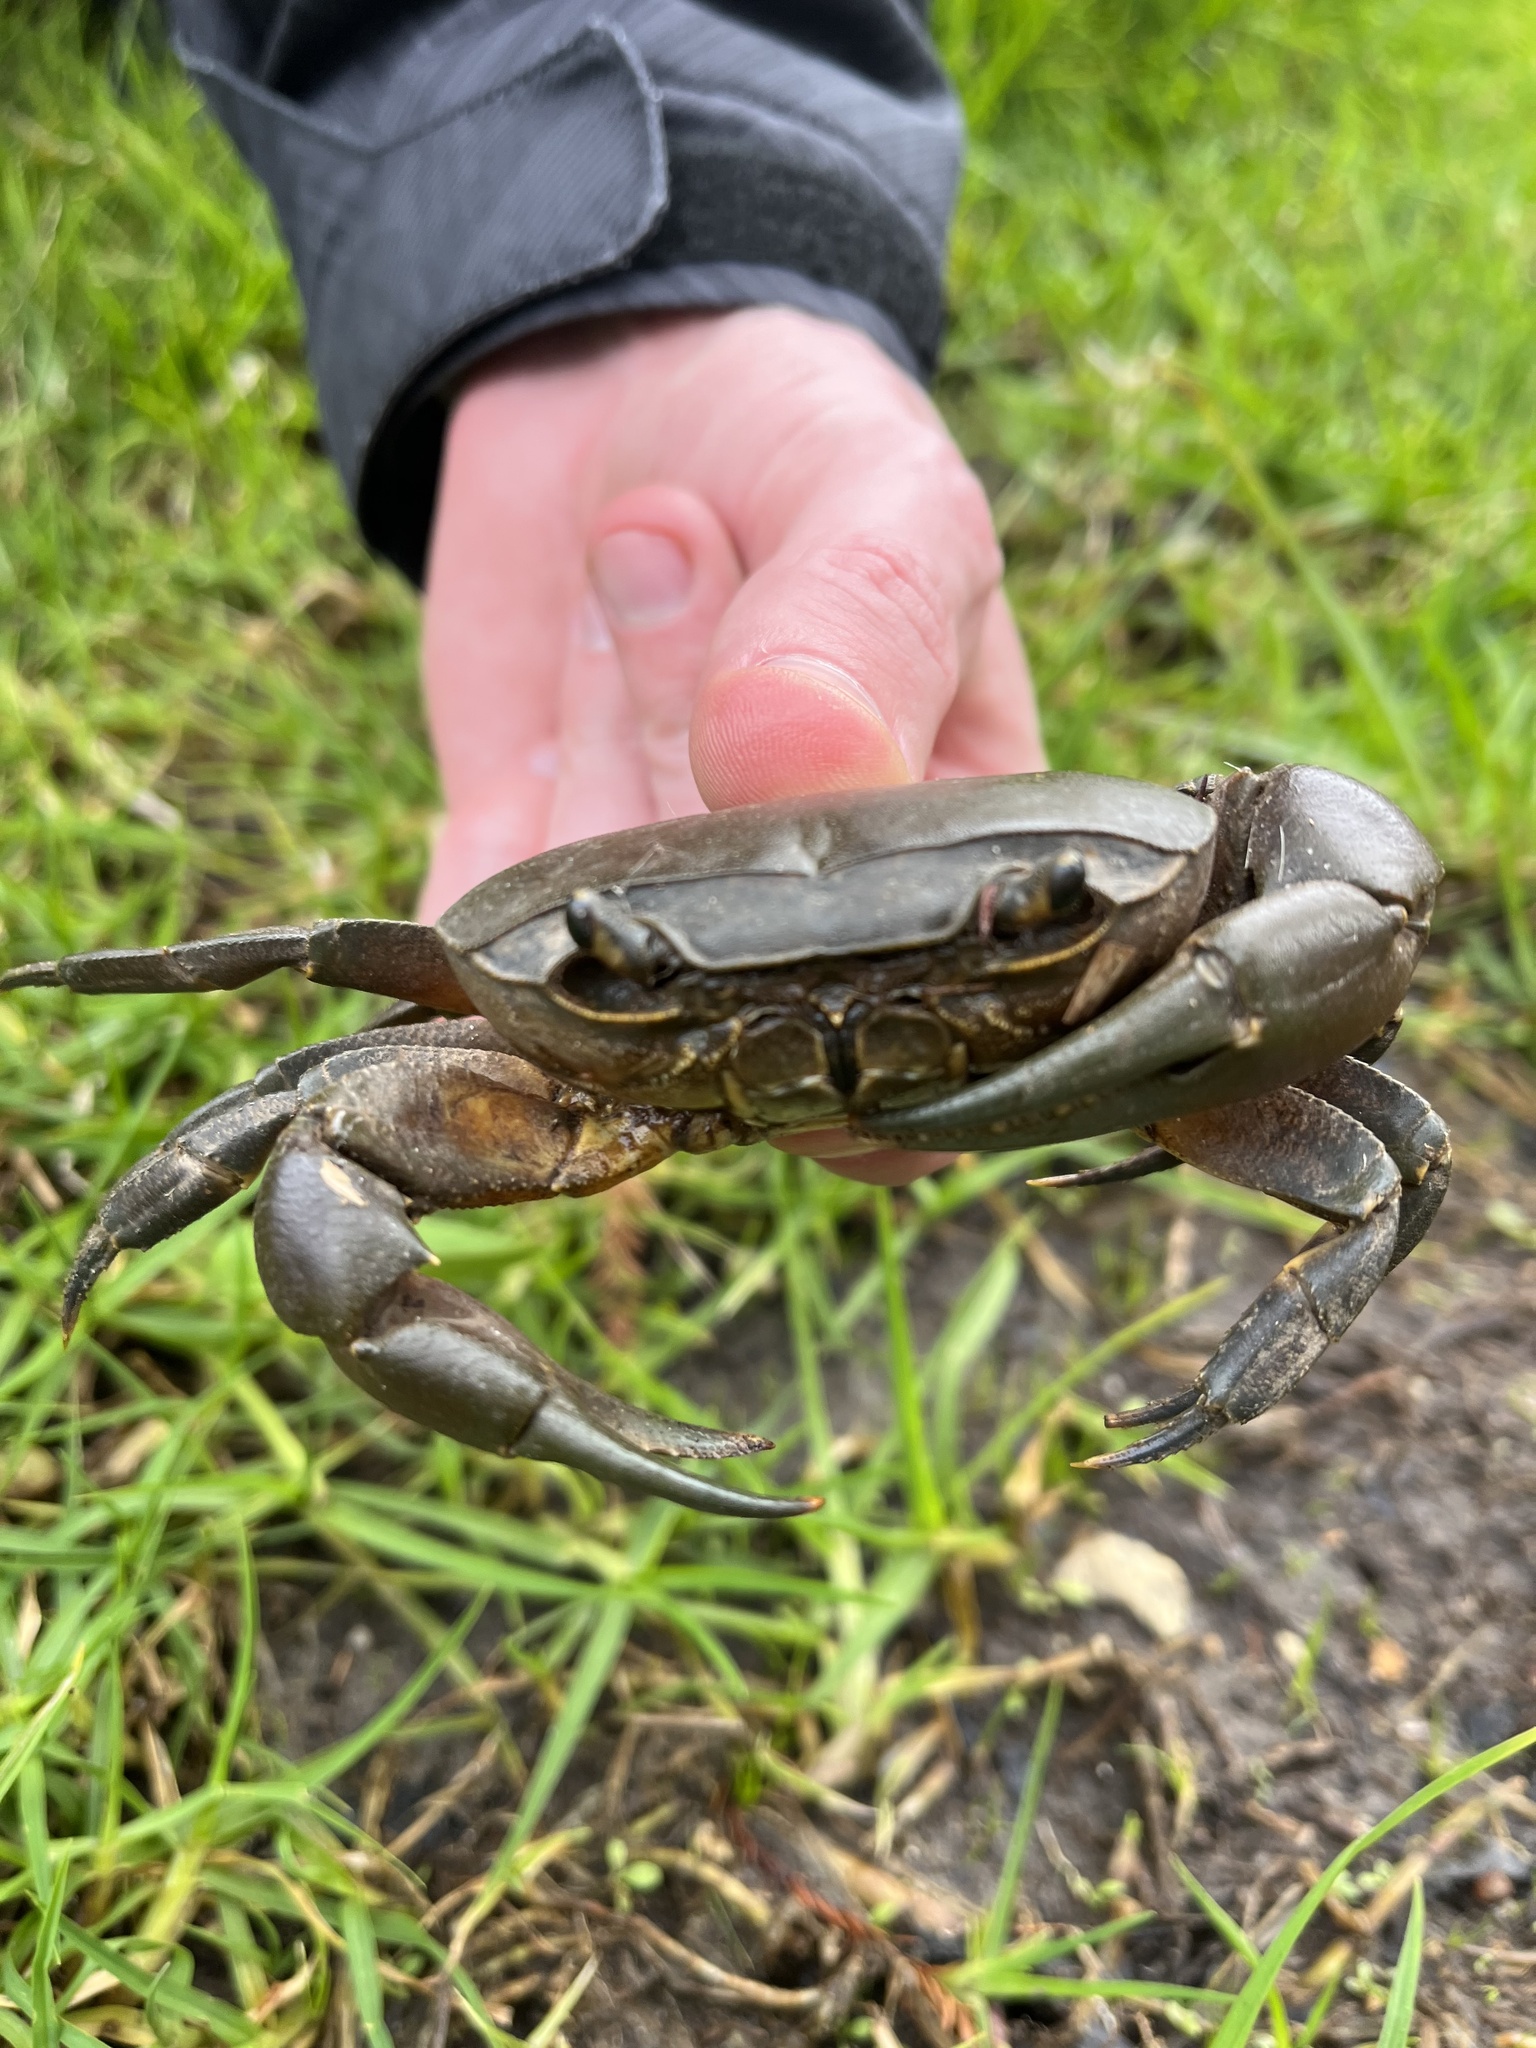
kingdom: Animalia
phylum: Arthropoda
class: Malacostraca
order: Decapoda
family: Potamonautidae
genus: Potamonautes
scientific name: Potamonautes perlatus
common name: Cape river crab
